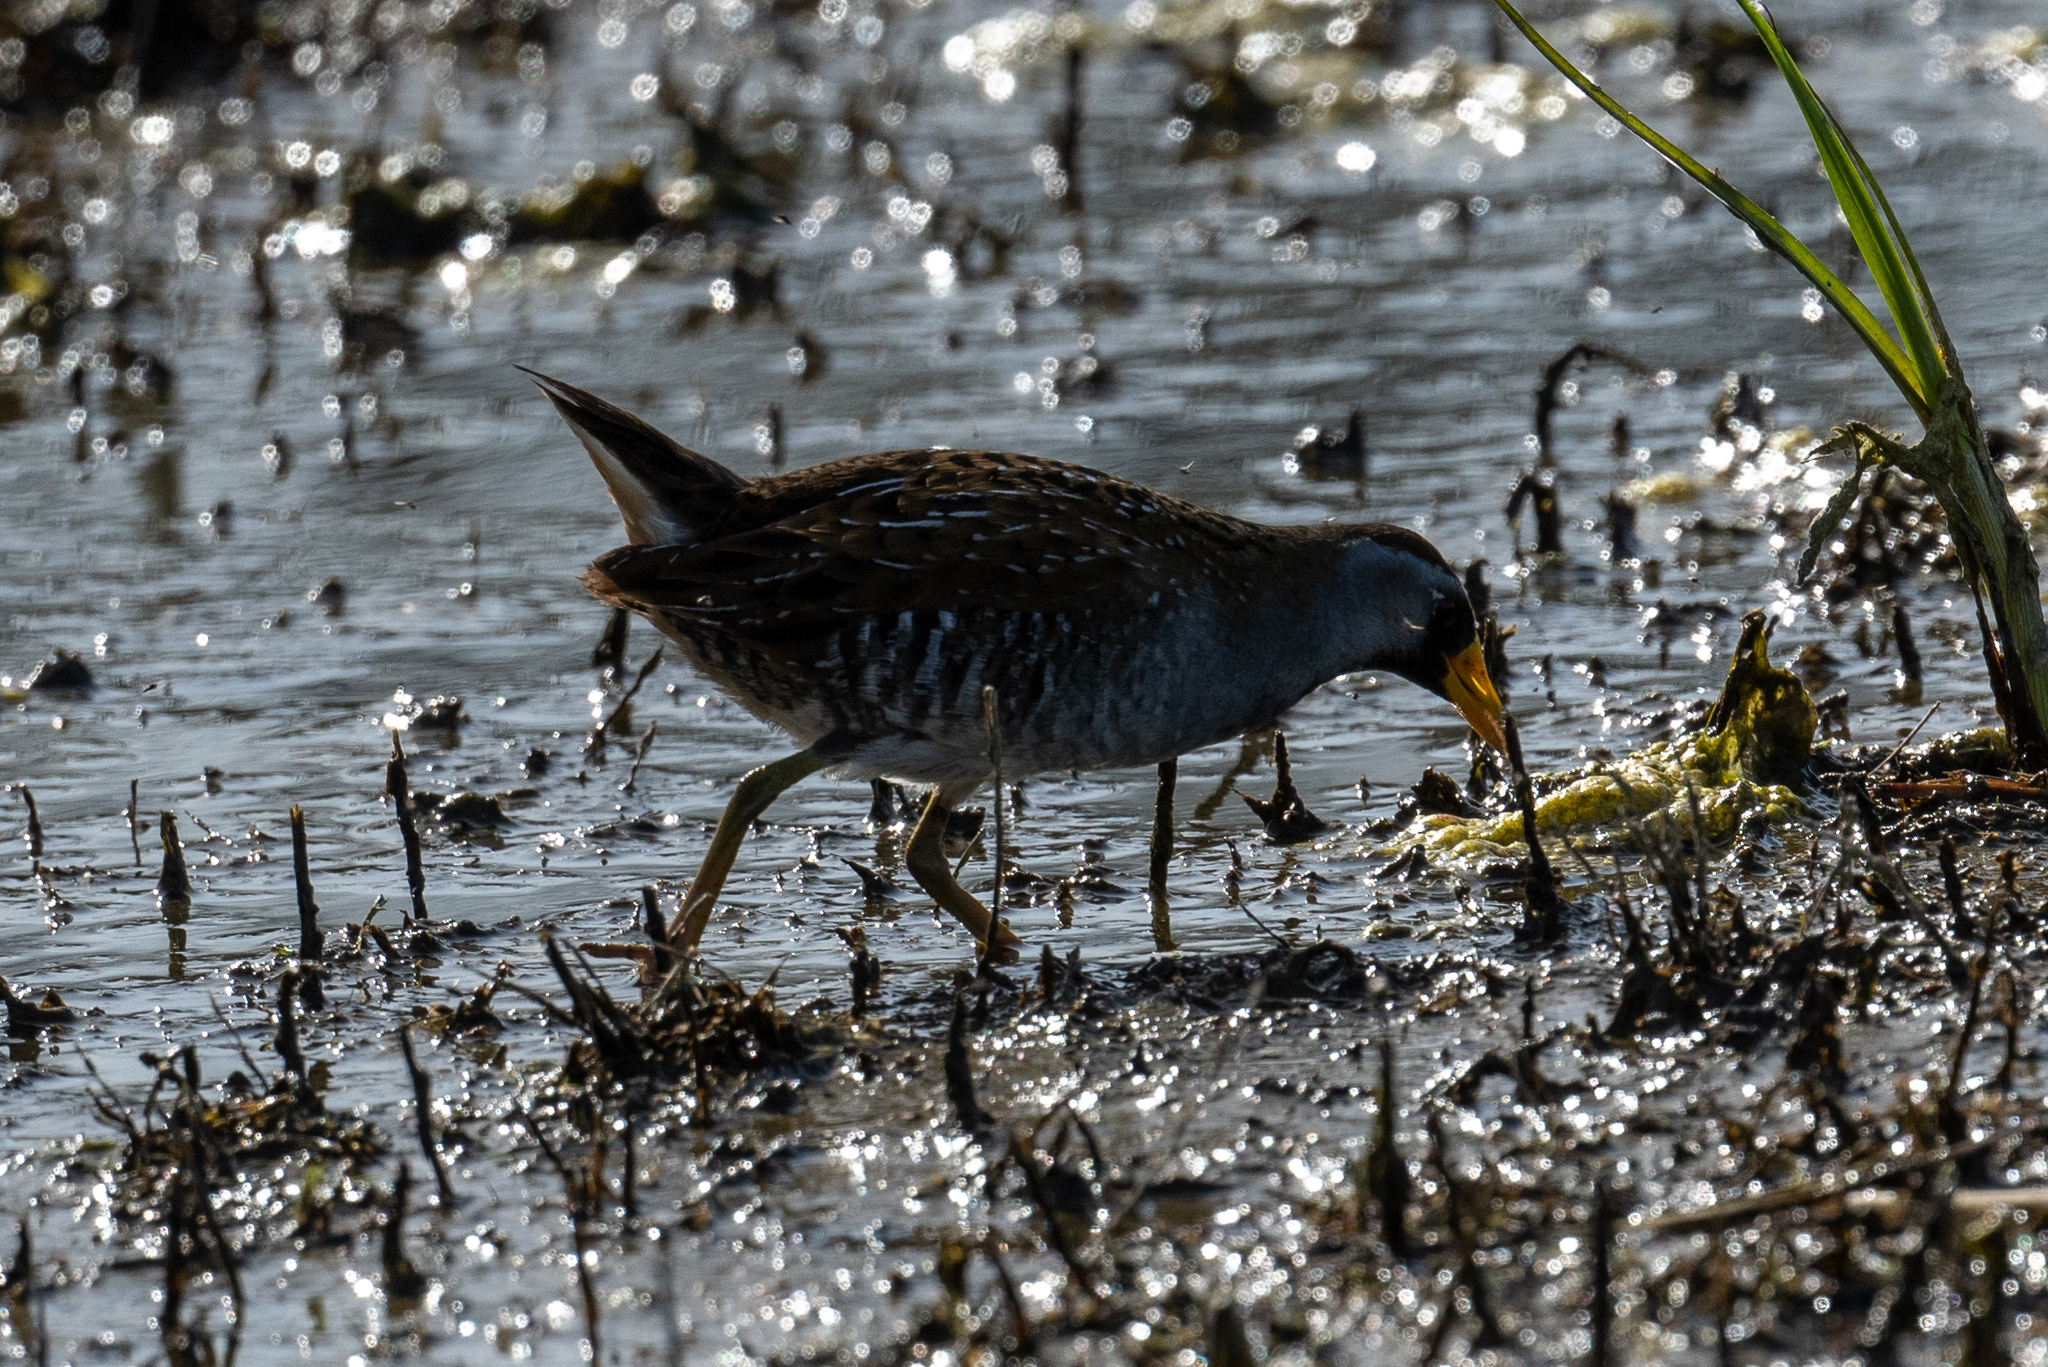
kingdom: Animalia
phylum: Chordata
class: Aves
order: Gruiformes
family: Rallidae
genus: Porzana
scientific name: Porzana carolina
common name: Sora
